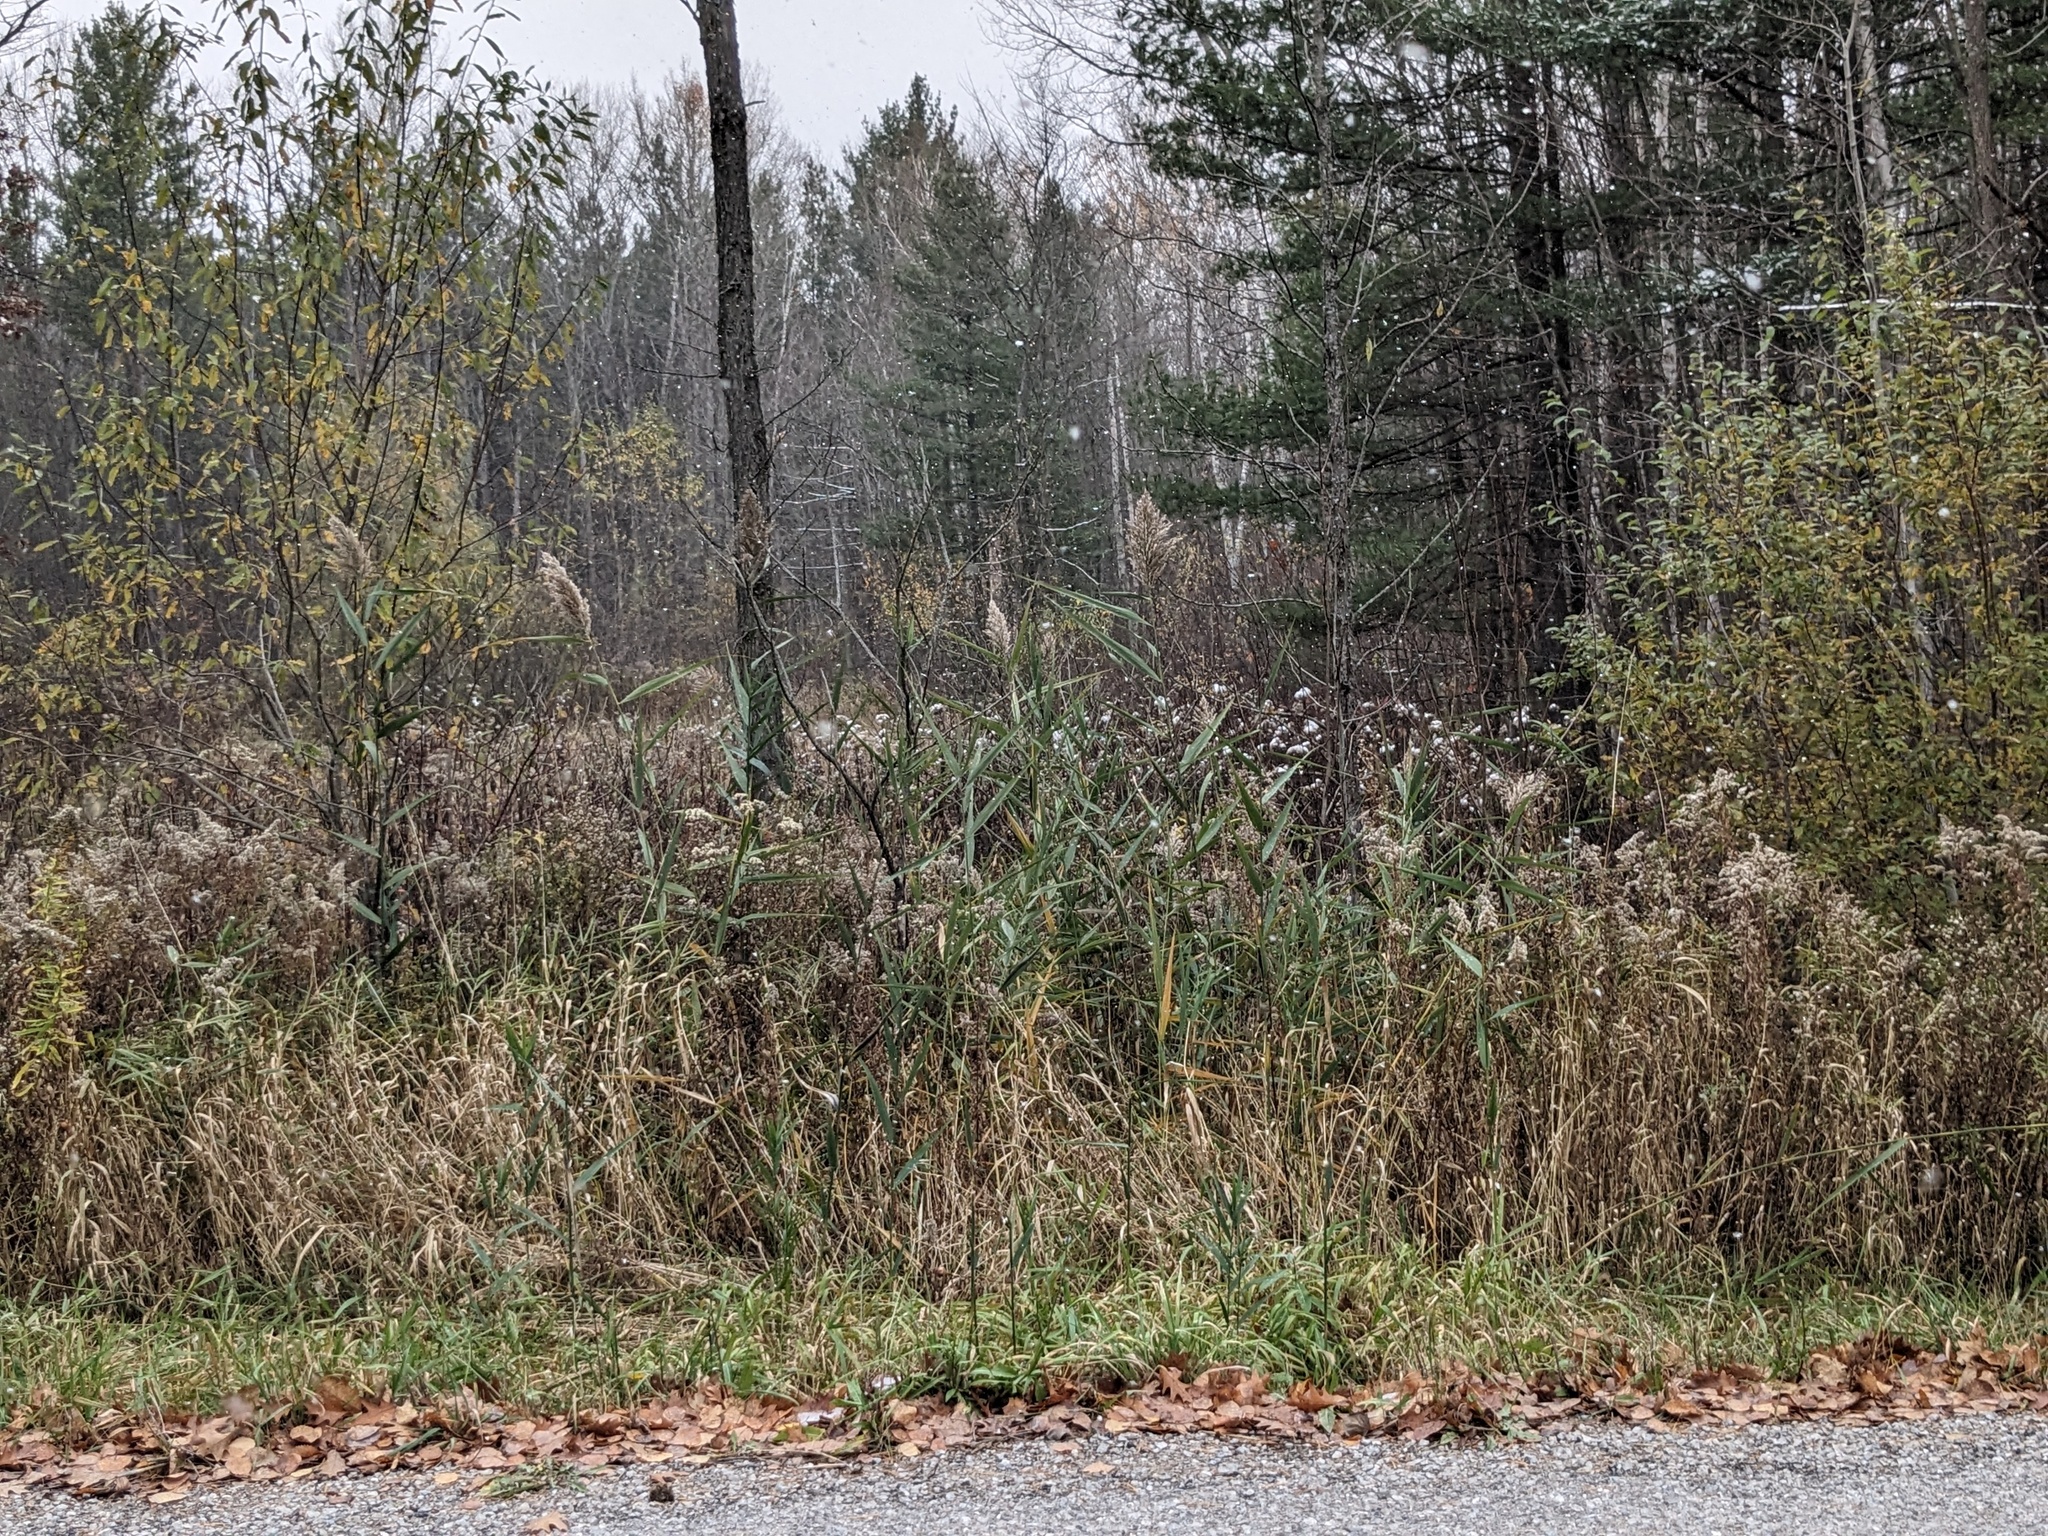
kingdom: Plantae
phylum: Tracheophyta
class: Liliopsida
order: Poales
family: Poaceae
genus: Phragmites
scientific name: Phragmites australis
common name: Common reed
